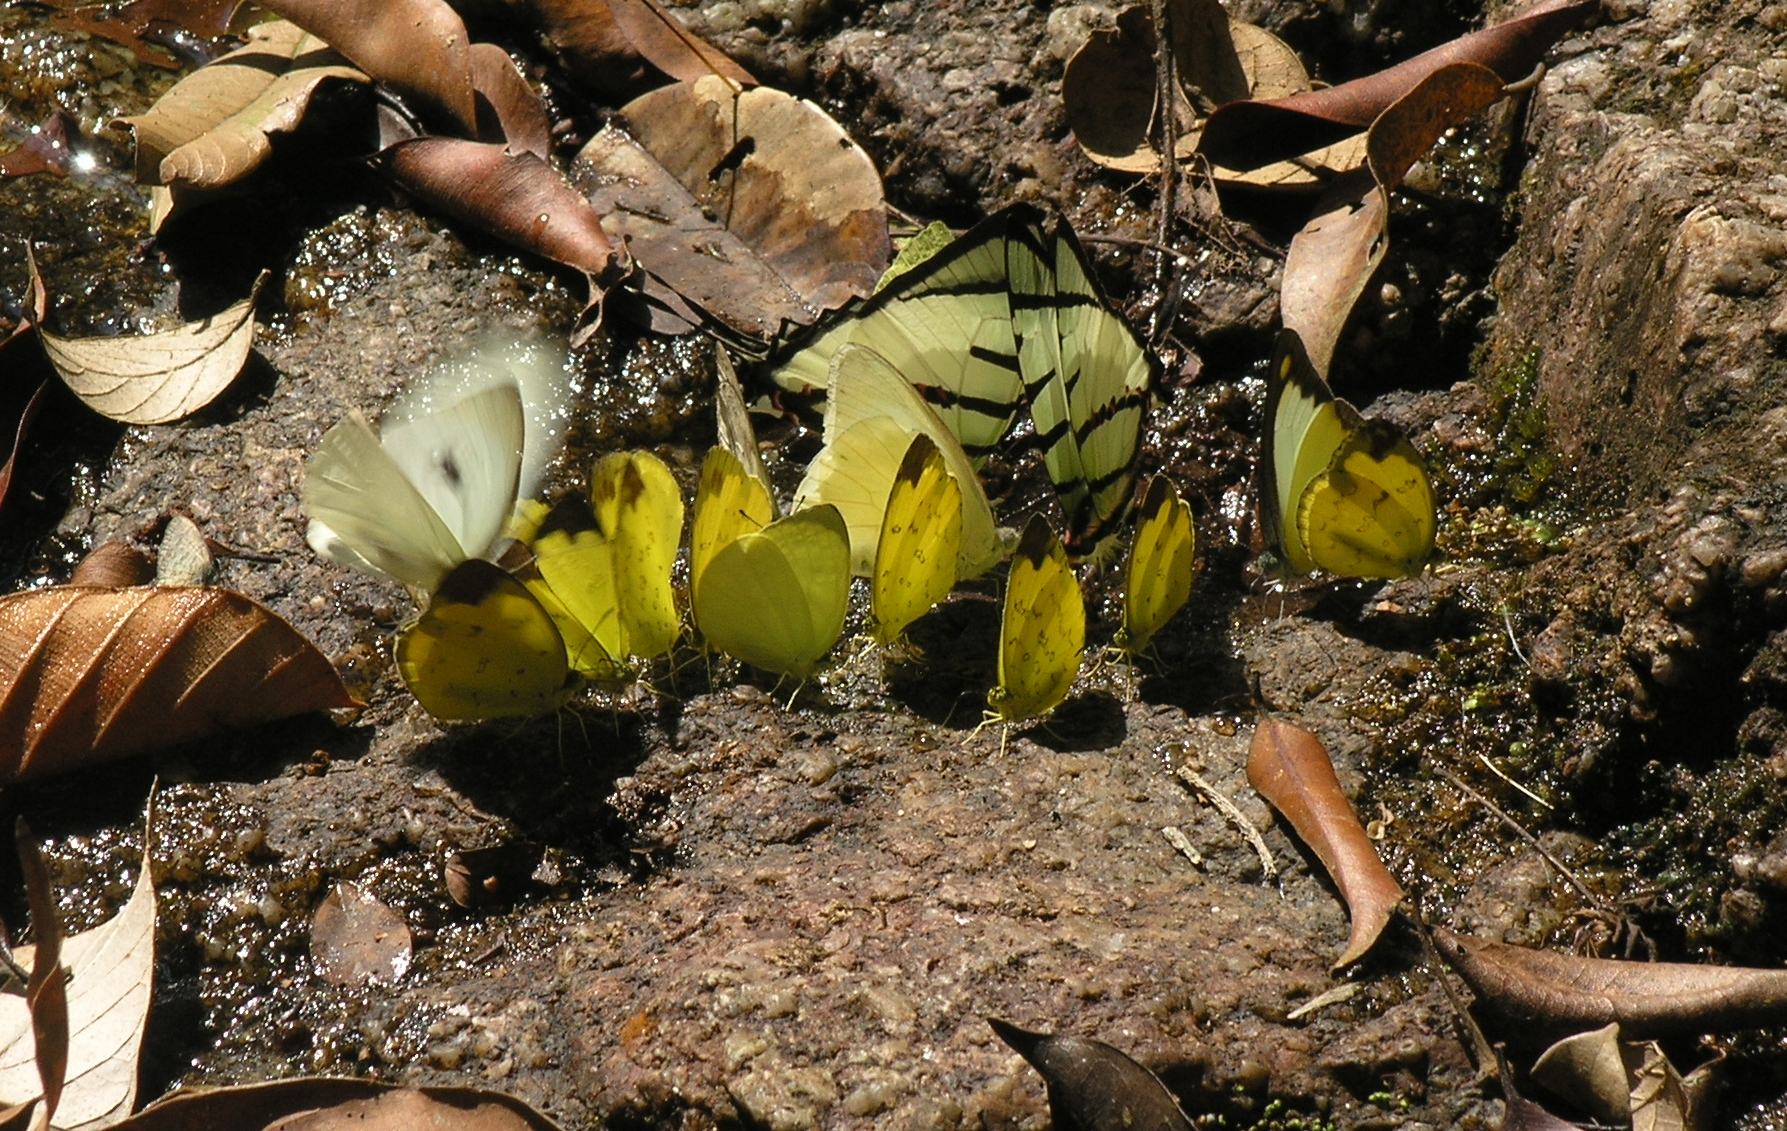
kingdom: Animalia
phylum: Arthropoda
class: Insecta
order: Lepidoptera
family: Pieridae
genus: Appias
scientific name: Appias albina
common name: Common albatross
